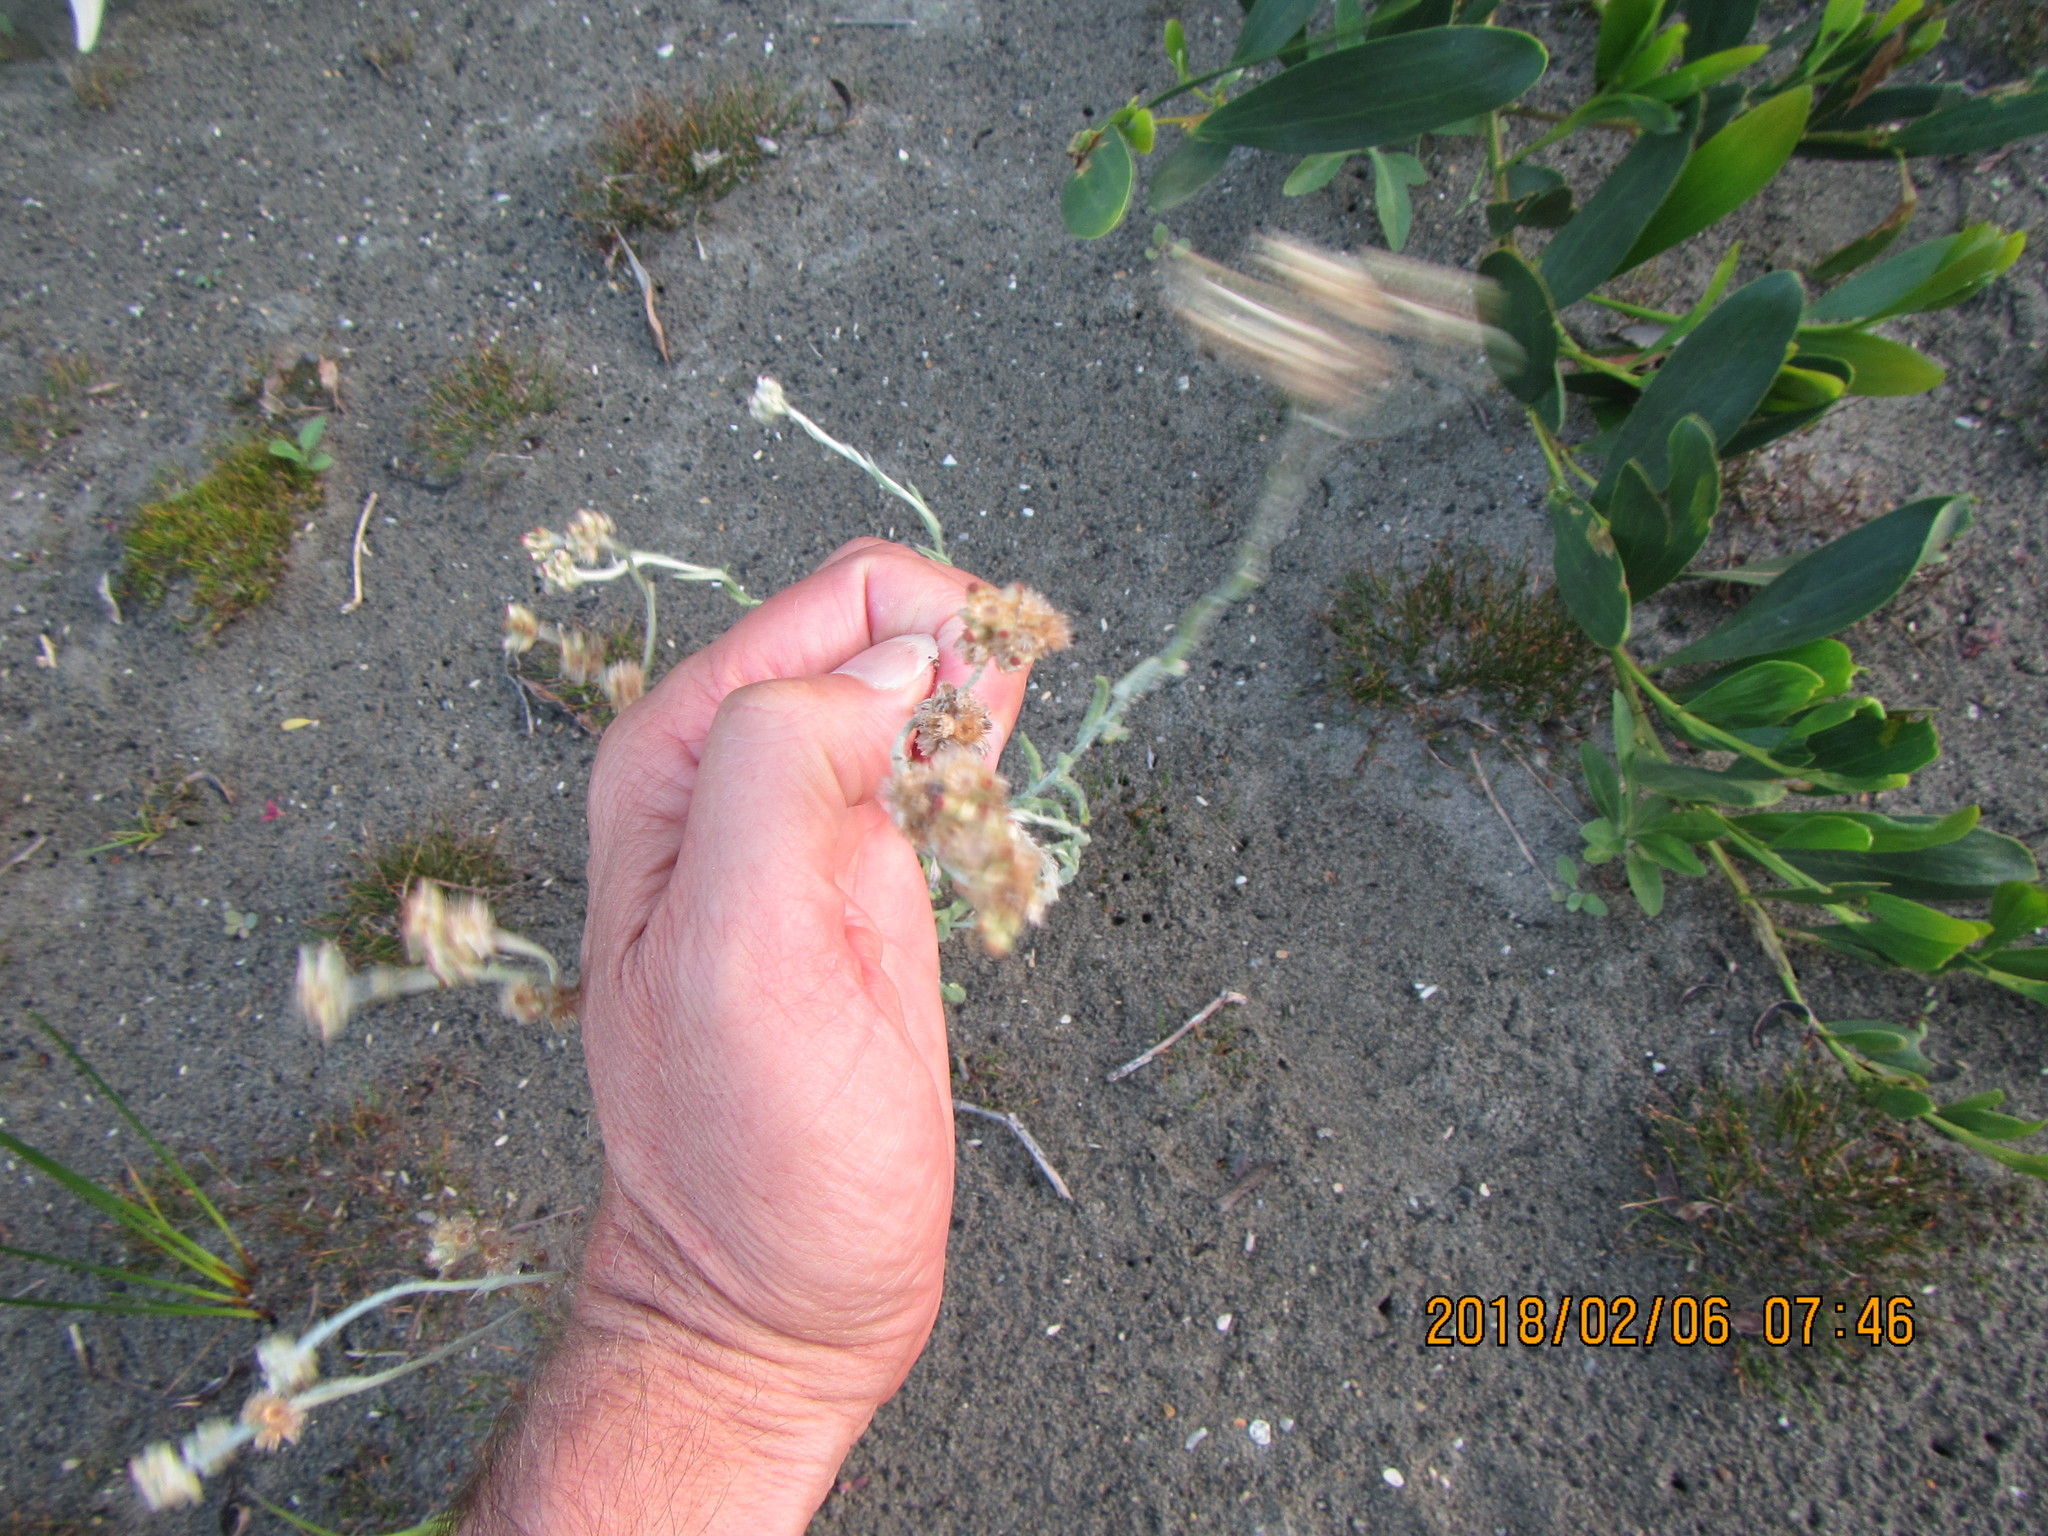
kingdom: Plantae
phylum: Tracheophyta
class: Magnoliopsida
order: Asterales
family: Asteraceae
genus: Helichrysum
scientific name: Helichrysum luteoalbum
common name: Daisy
